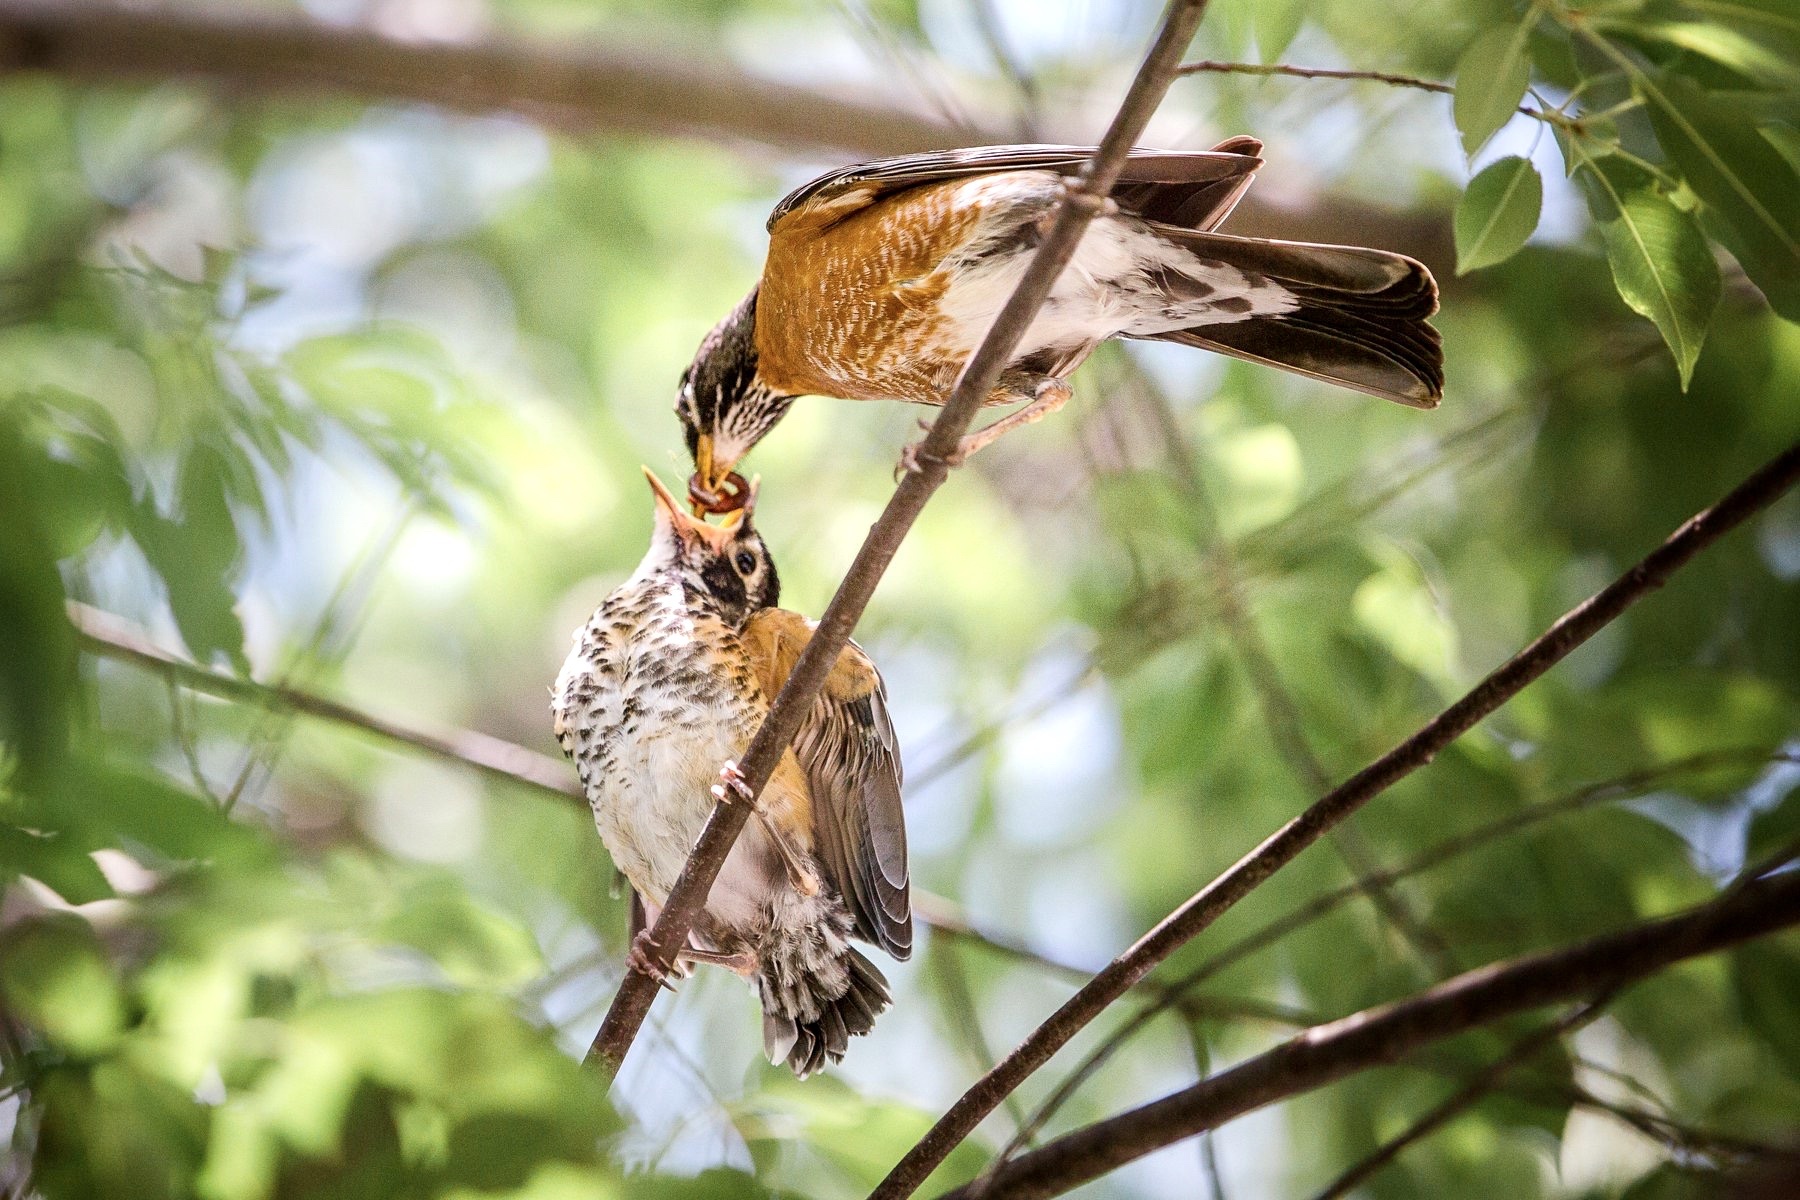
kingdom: Animalia
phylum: Chordata
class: Aves
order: Passeriformes
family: Turdidae
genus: Turdus
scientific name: Turdus migratorius
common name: American robin
